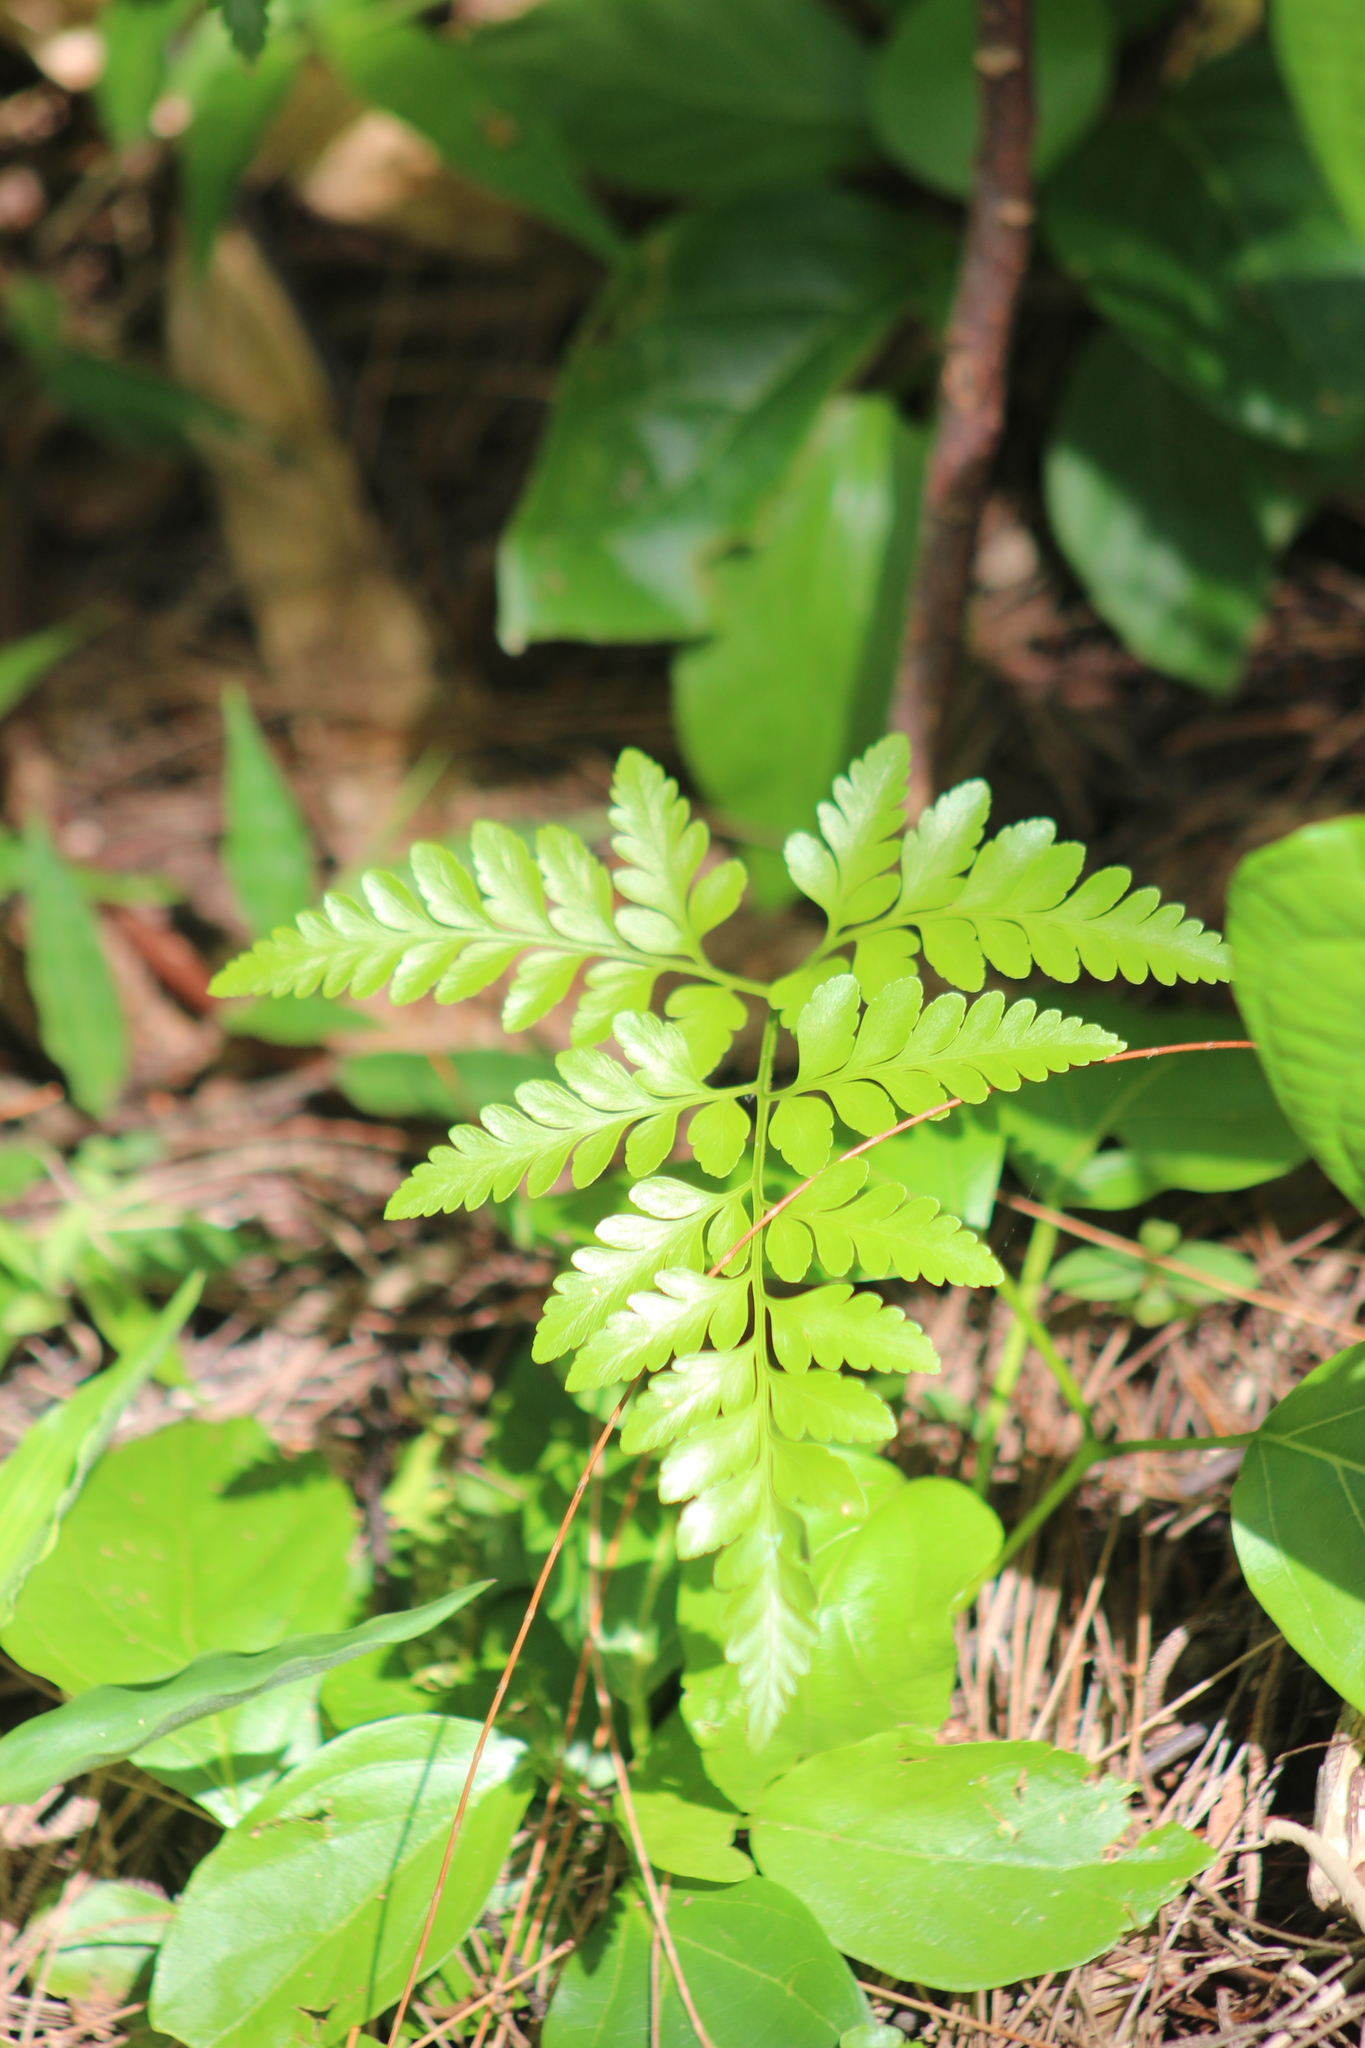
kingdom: Plantae
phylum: Tracheophyta
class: Polypodiopsida
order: Polypodiales
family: Davalliaceae
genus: Davallia
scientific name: Davallia solida
